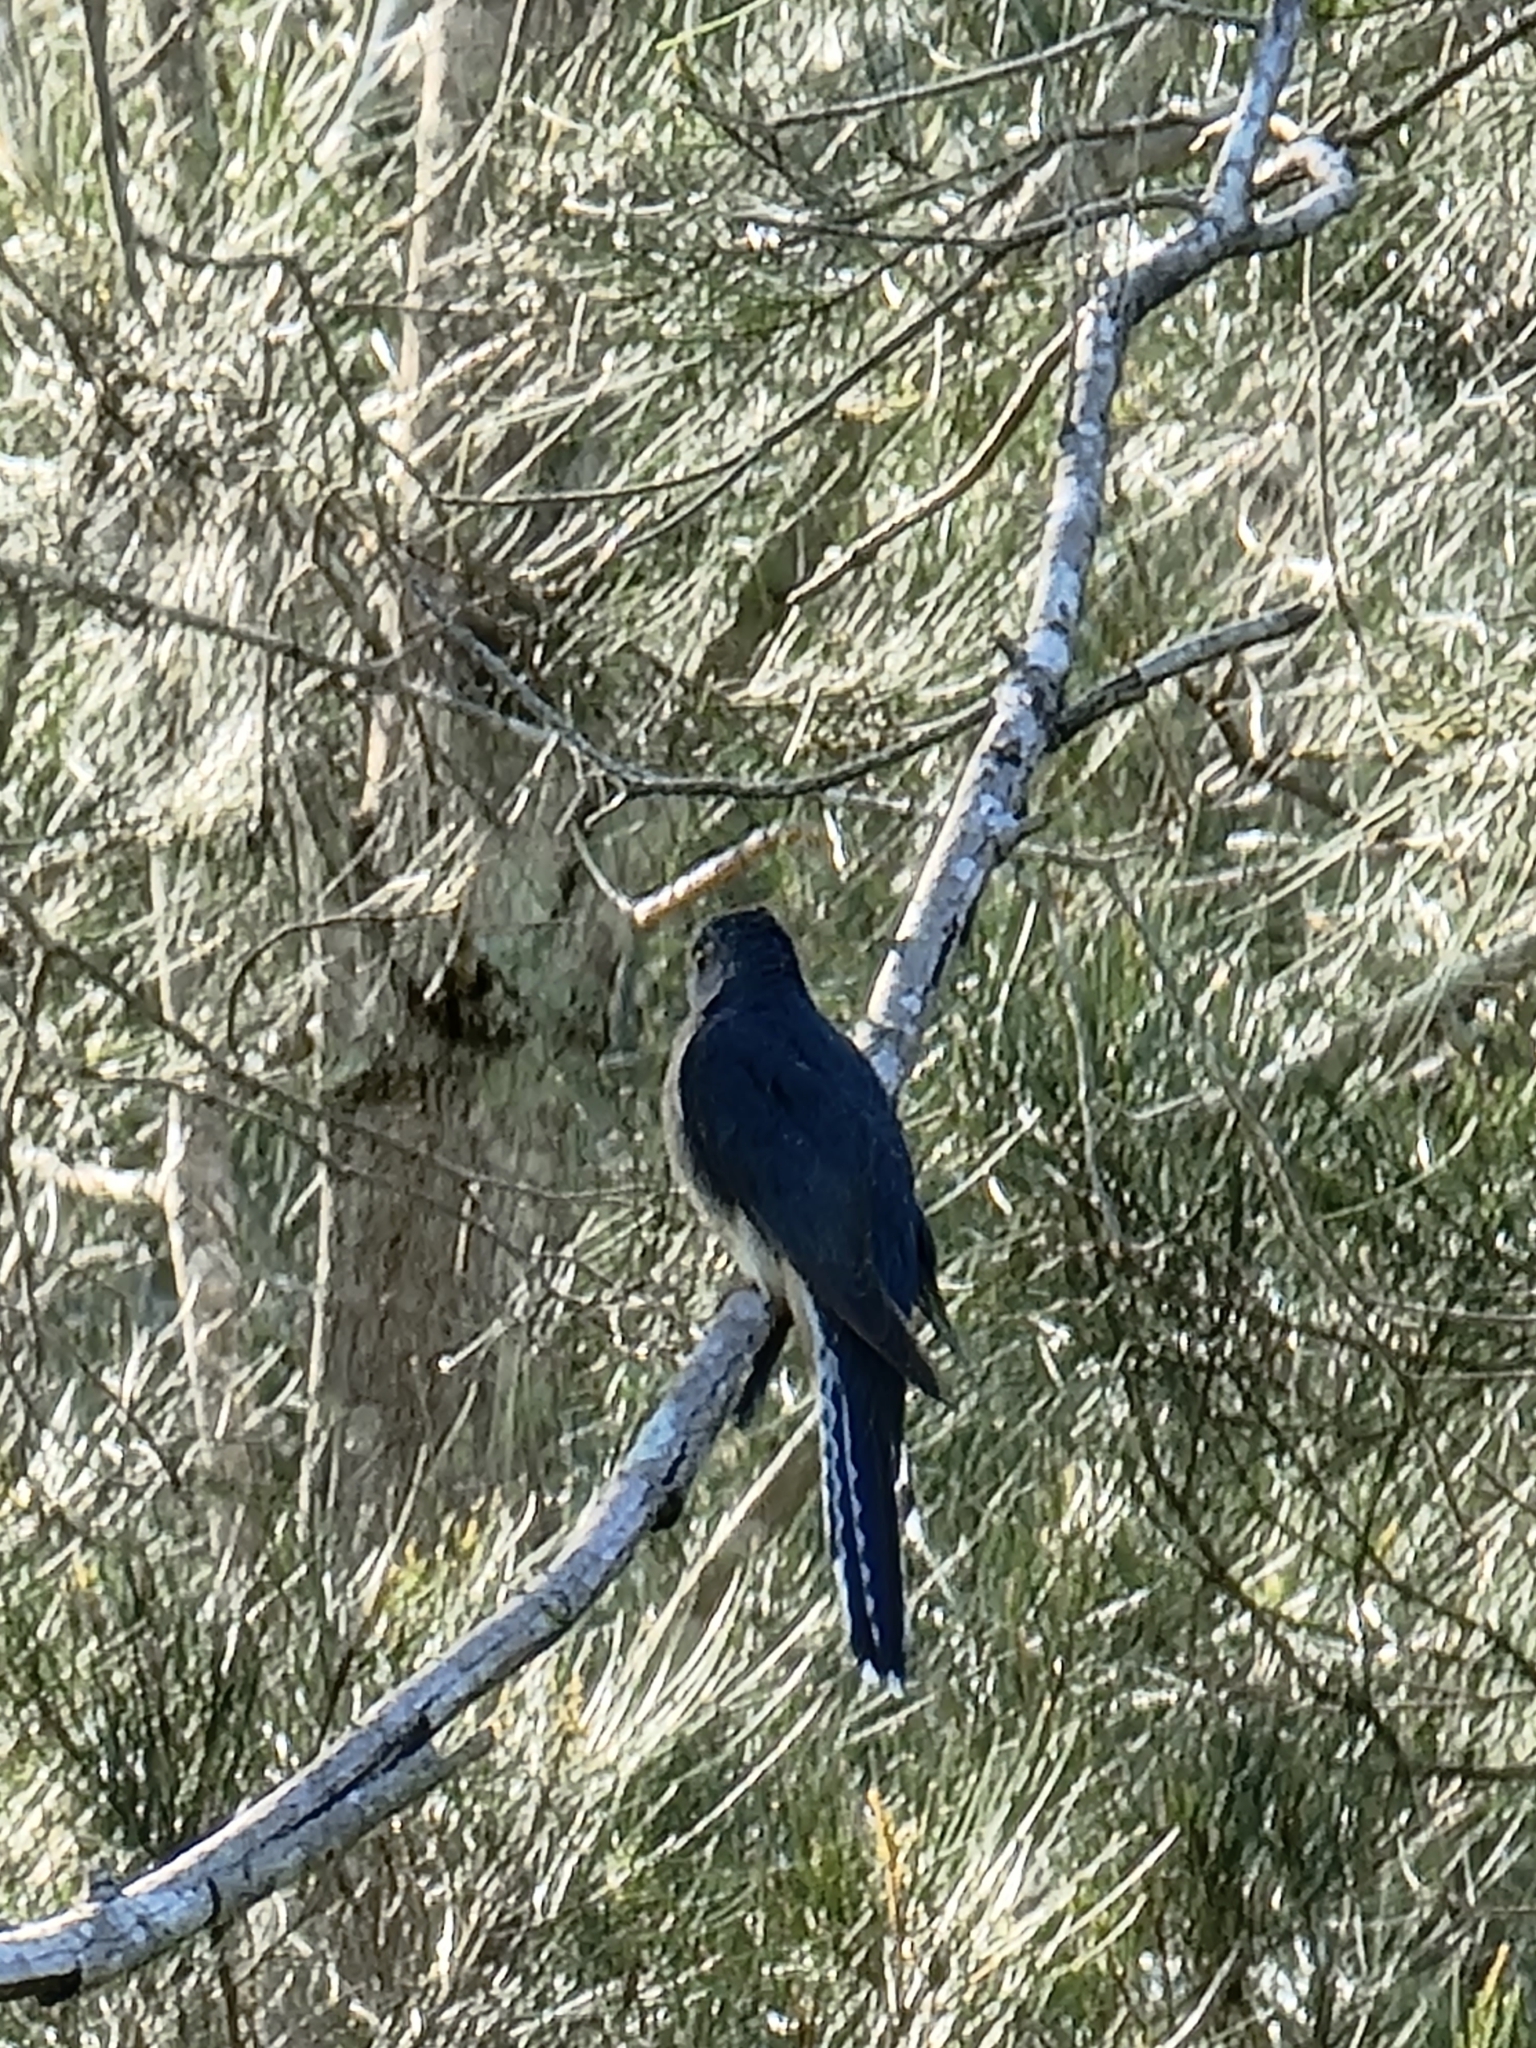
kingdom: Animalia
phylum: Chordata
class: Aves
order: Cuculiformes
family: Cuculidae
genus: Cacomantis
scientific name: Cacomantis flabelliformis
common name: Fan-tailed cuckoo
